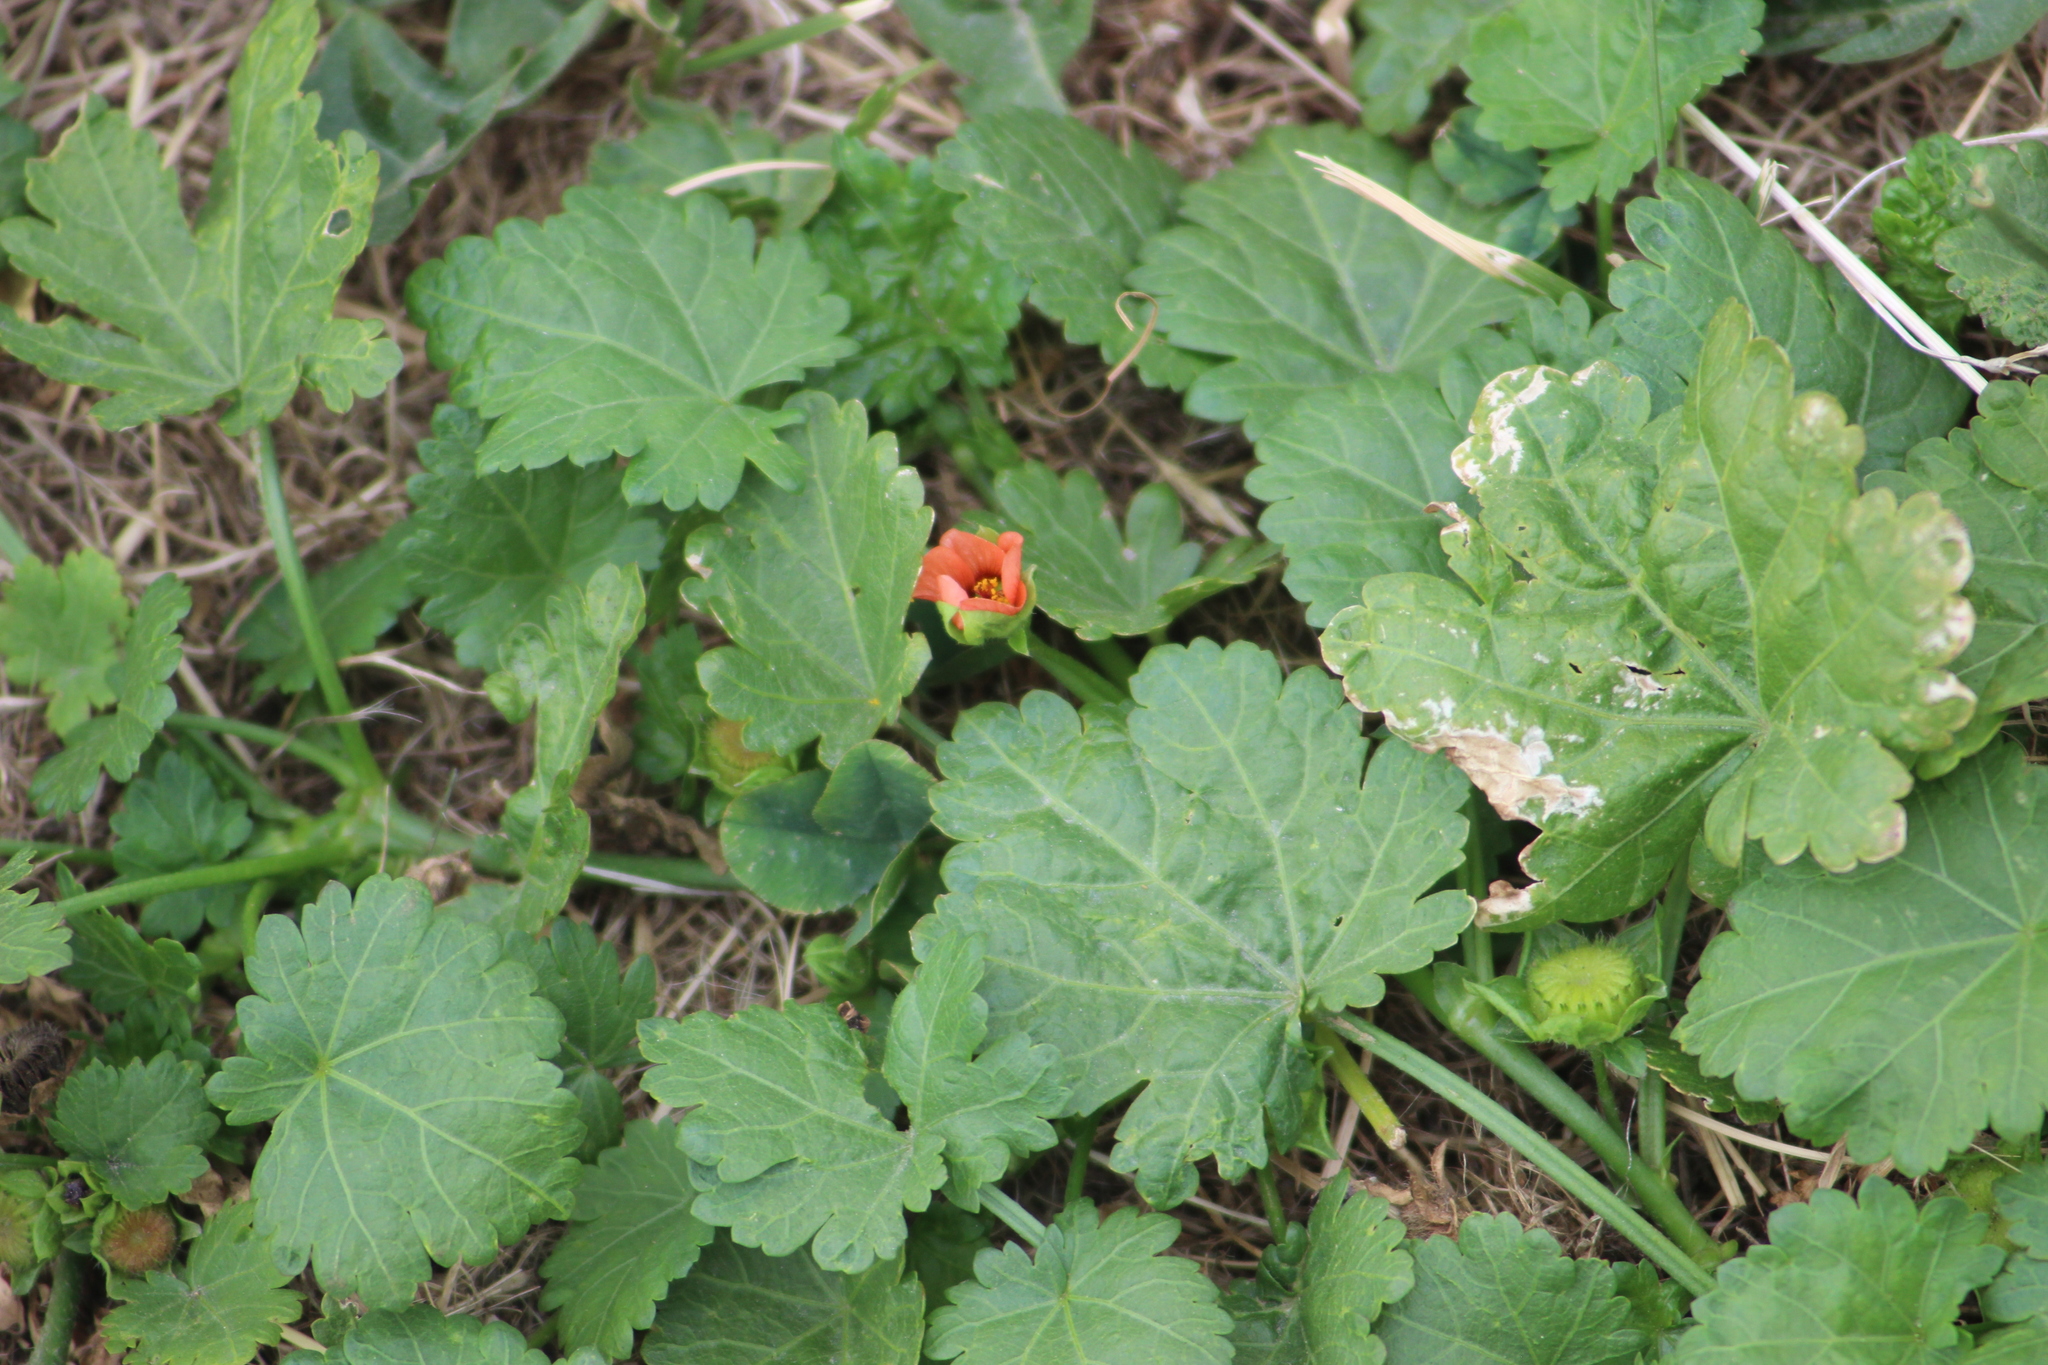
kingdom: Plantae
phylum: Tracheophyta
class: Magnoliopsida
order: Malvales
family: Malvaceae
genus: Modiola
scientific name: Modiola caroliniana
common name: Carolina bristlemallow
